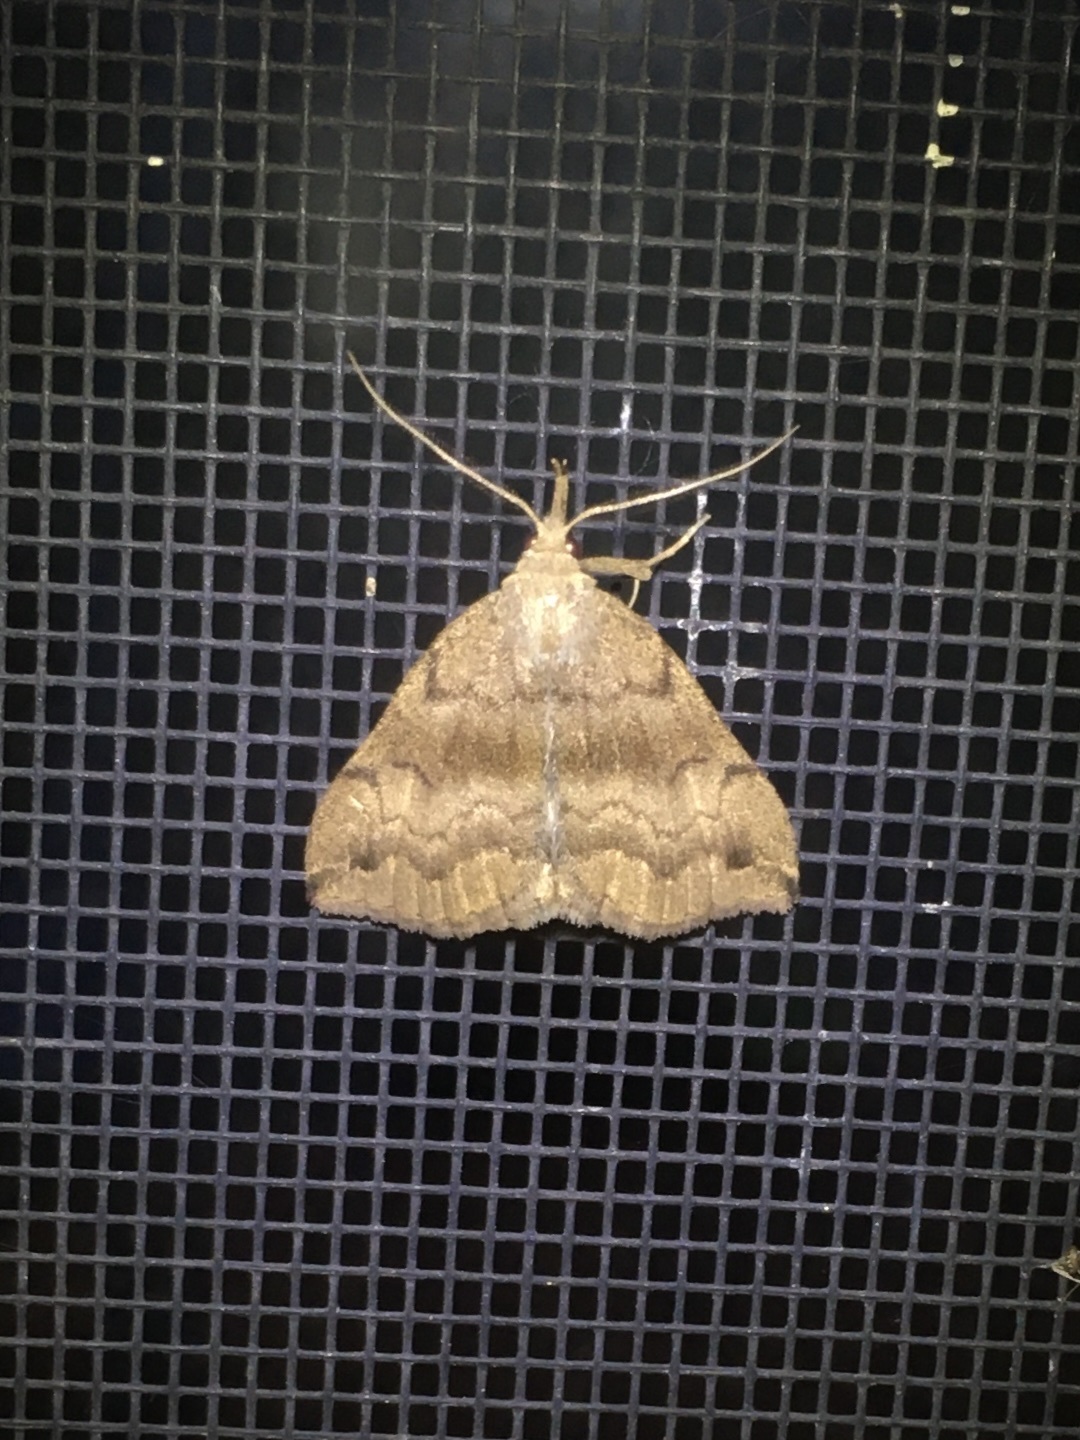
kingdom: Animalia
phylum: Arthropoda
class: Insecta
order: Lepidoptera
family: Erebidae
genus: Phalaenostola
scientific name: Phalaenostola eumelusalis
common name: Dark phalaenostola moth
